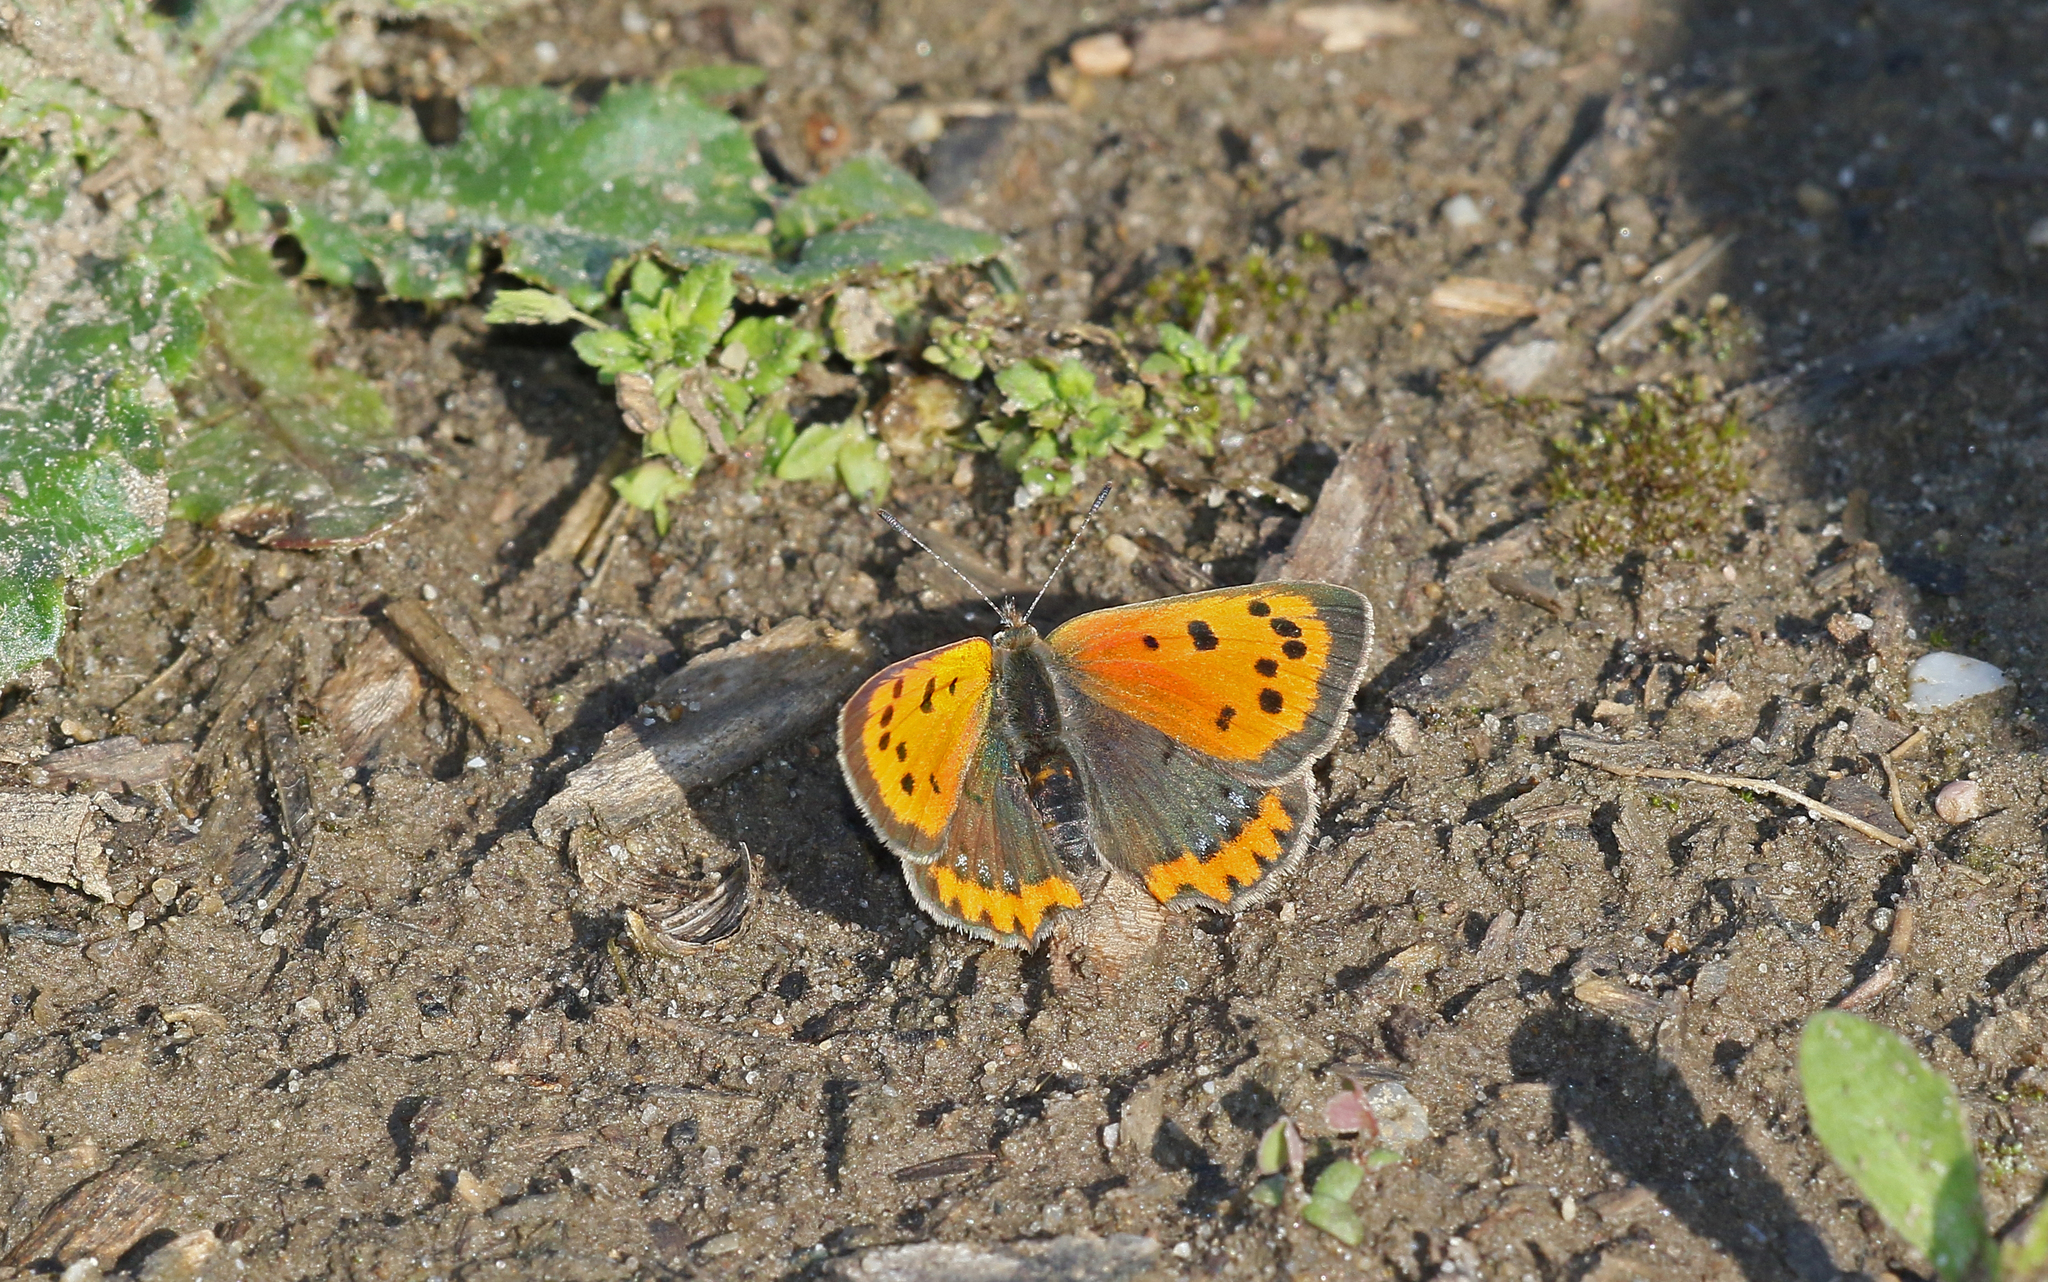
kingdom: Animalia
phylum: Arthropoda
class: Insecta
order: Lepidoptera
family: Lycaenidae
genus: Lycaena
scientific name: Lycaena phlaeas
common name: Small copper
